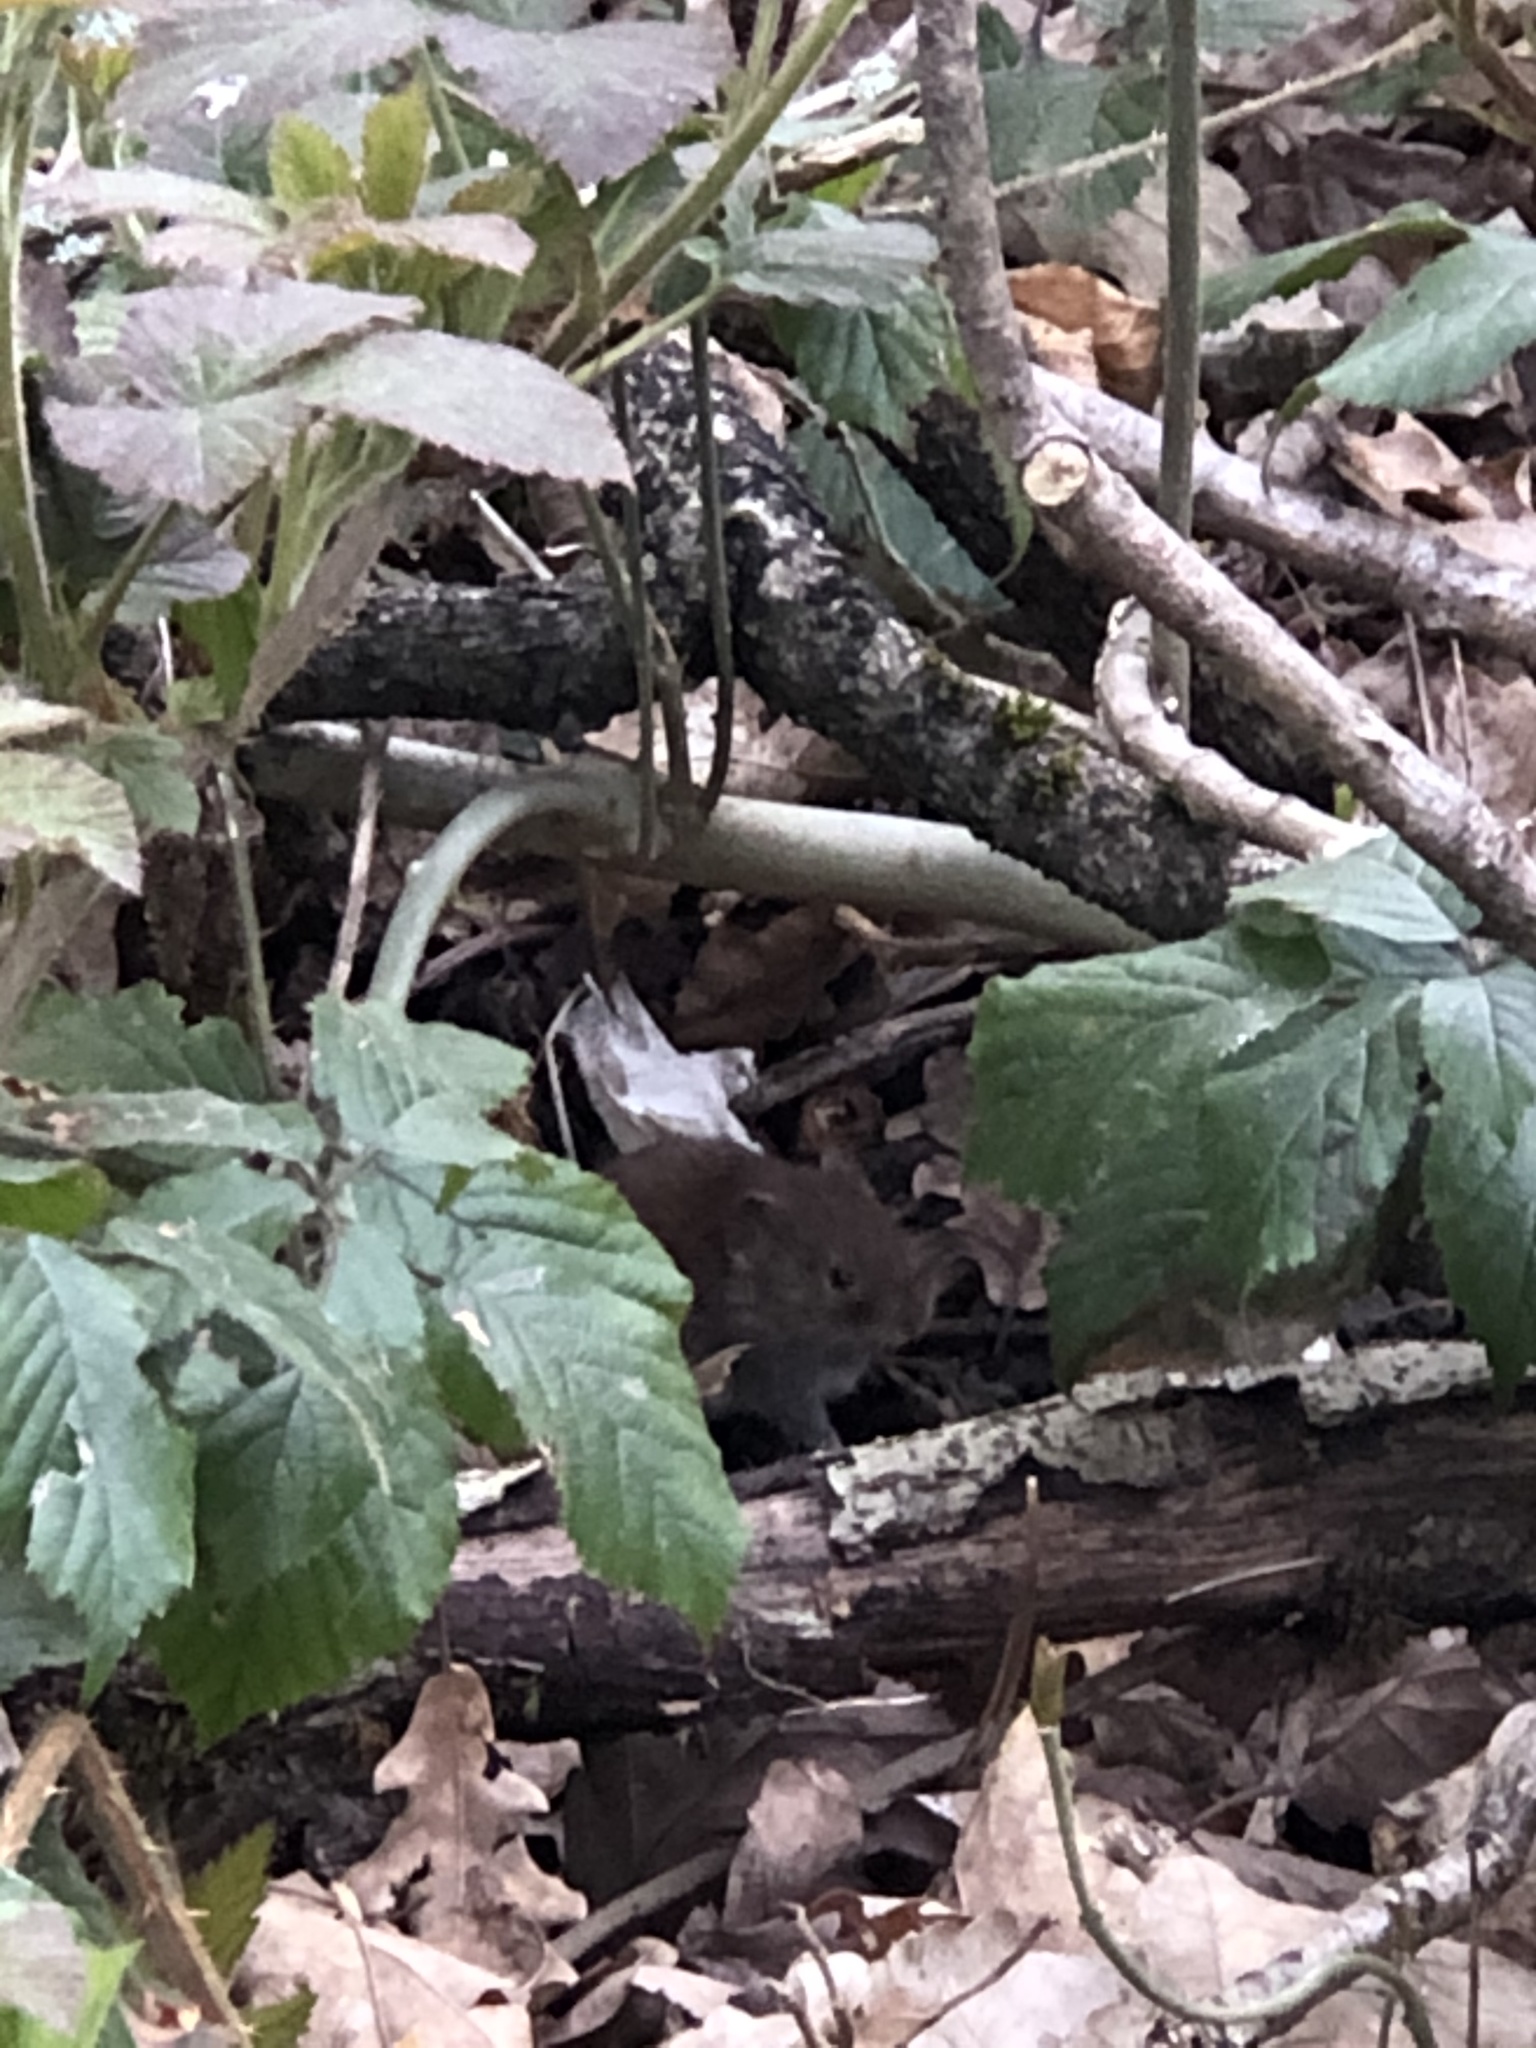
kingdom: Animalia
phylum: Chordata
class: Mammalia
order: Rodentia
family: Cricetidae
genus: Myodes
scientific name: Myodes glareolus
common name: Bank vole
